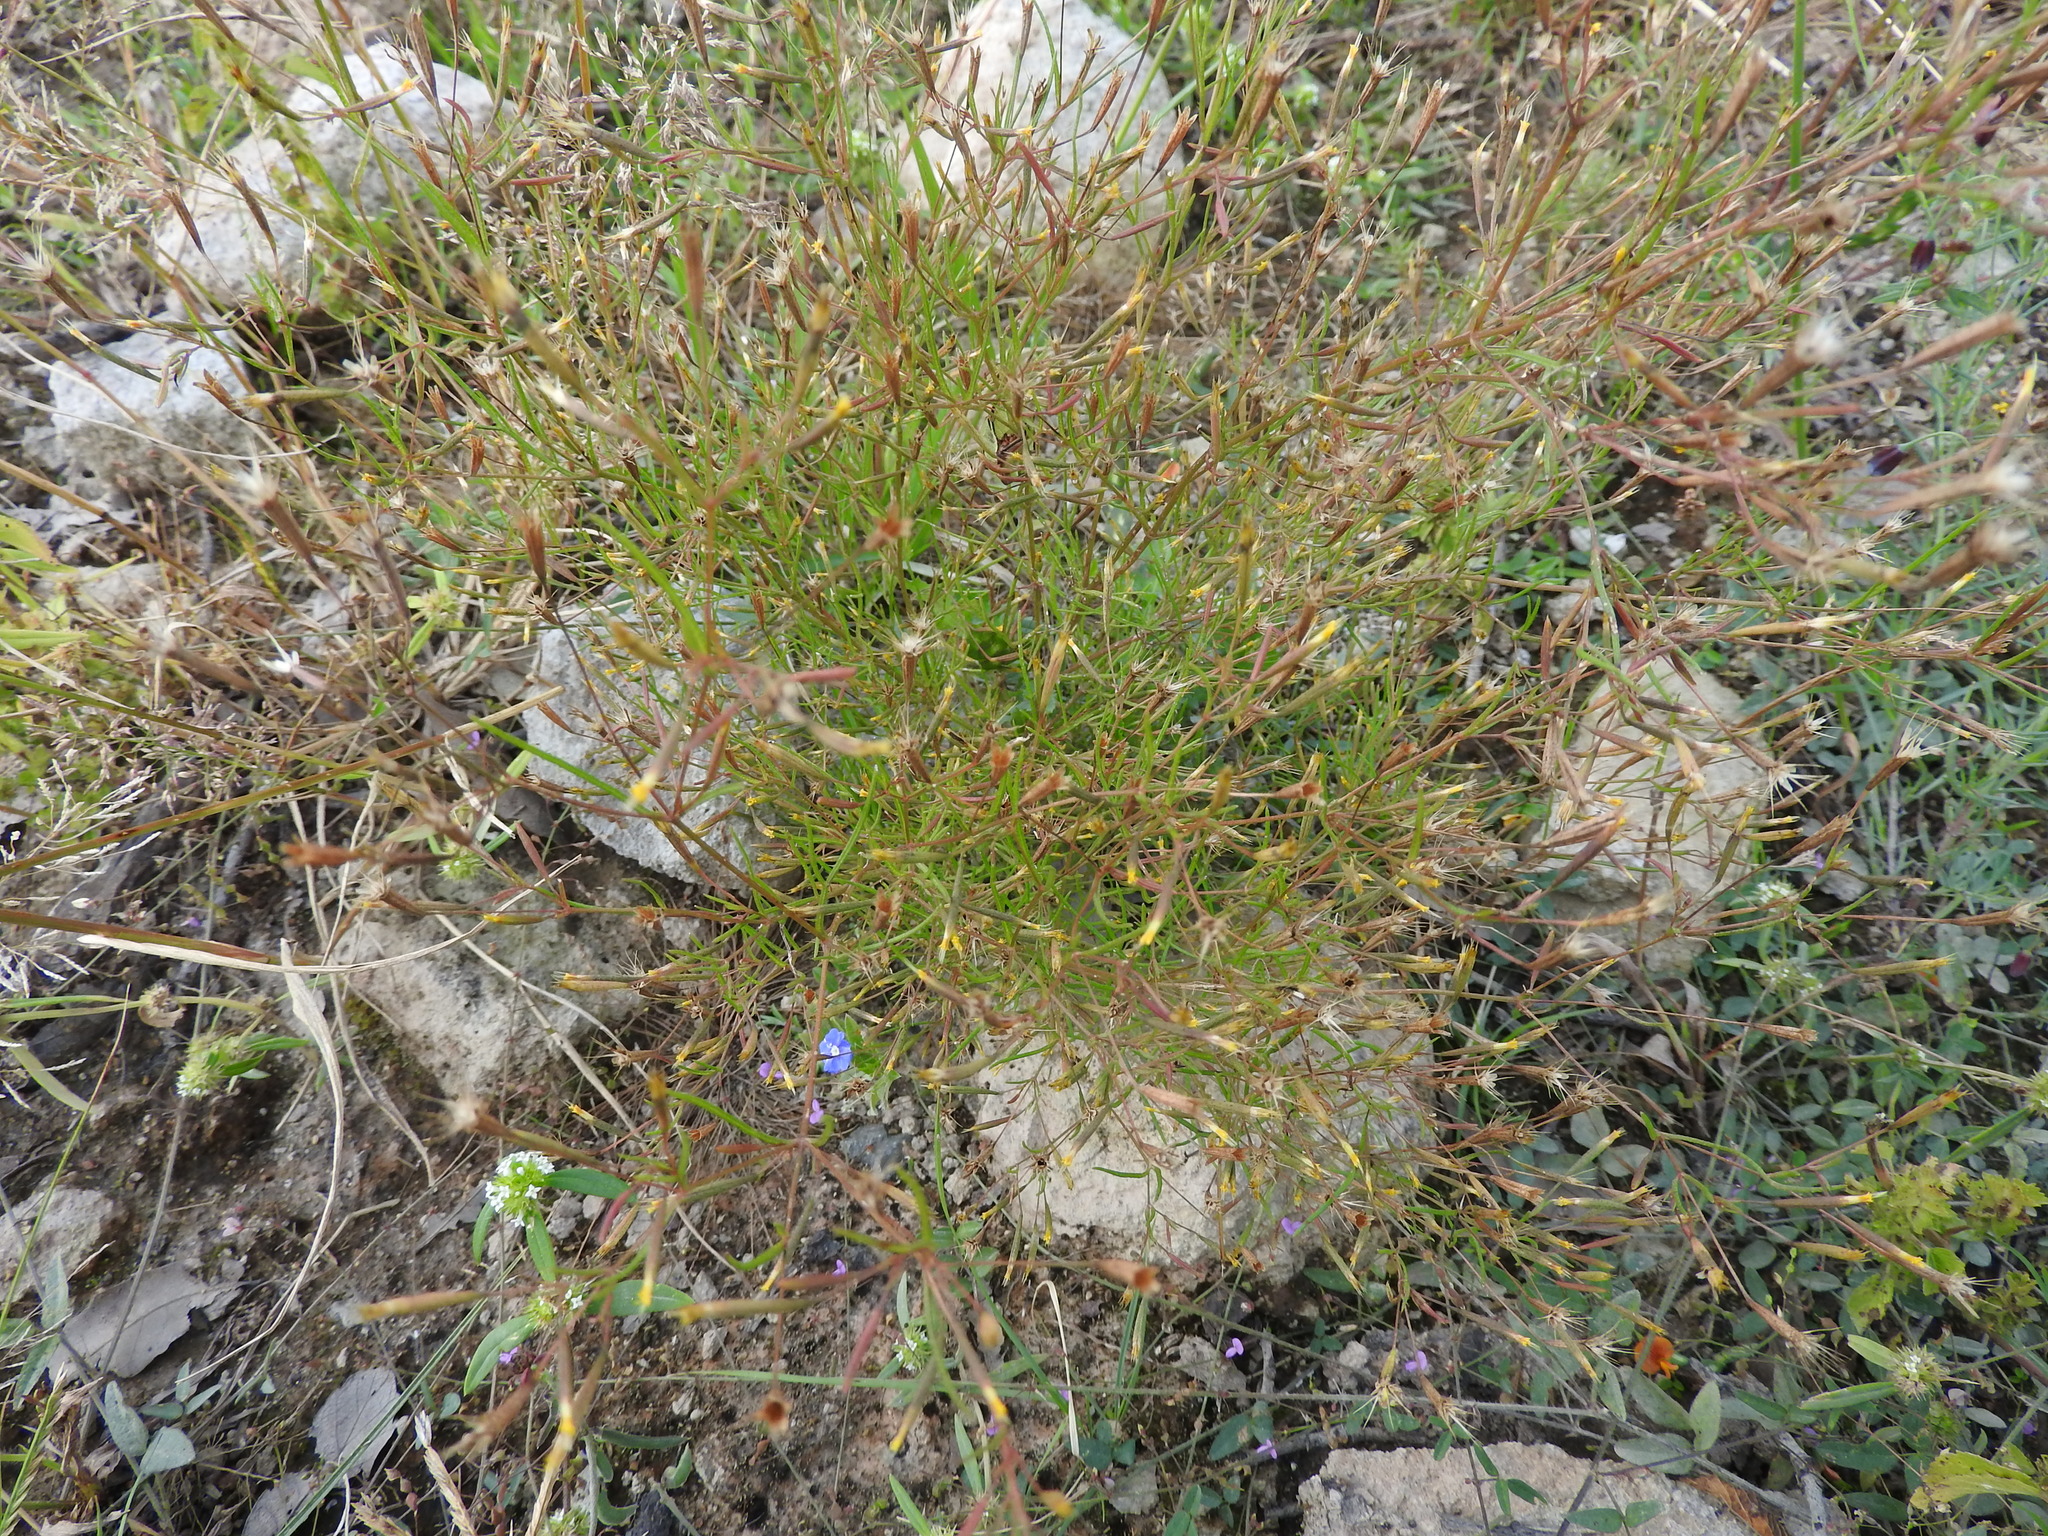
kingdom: Plantae
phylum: Tracheophyta
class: Magnoliopsida
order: Asterales
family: Asteraceae
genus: Tagetes
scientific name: Tagetes micrantha
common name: Licorice marigold
